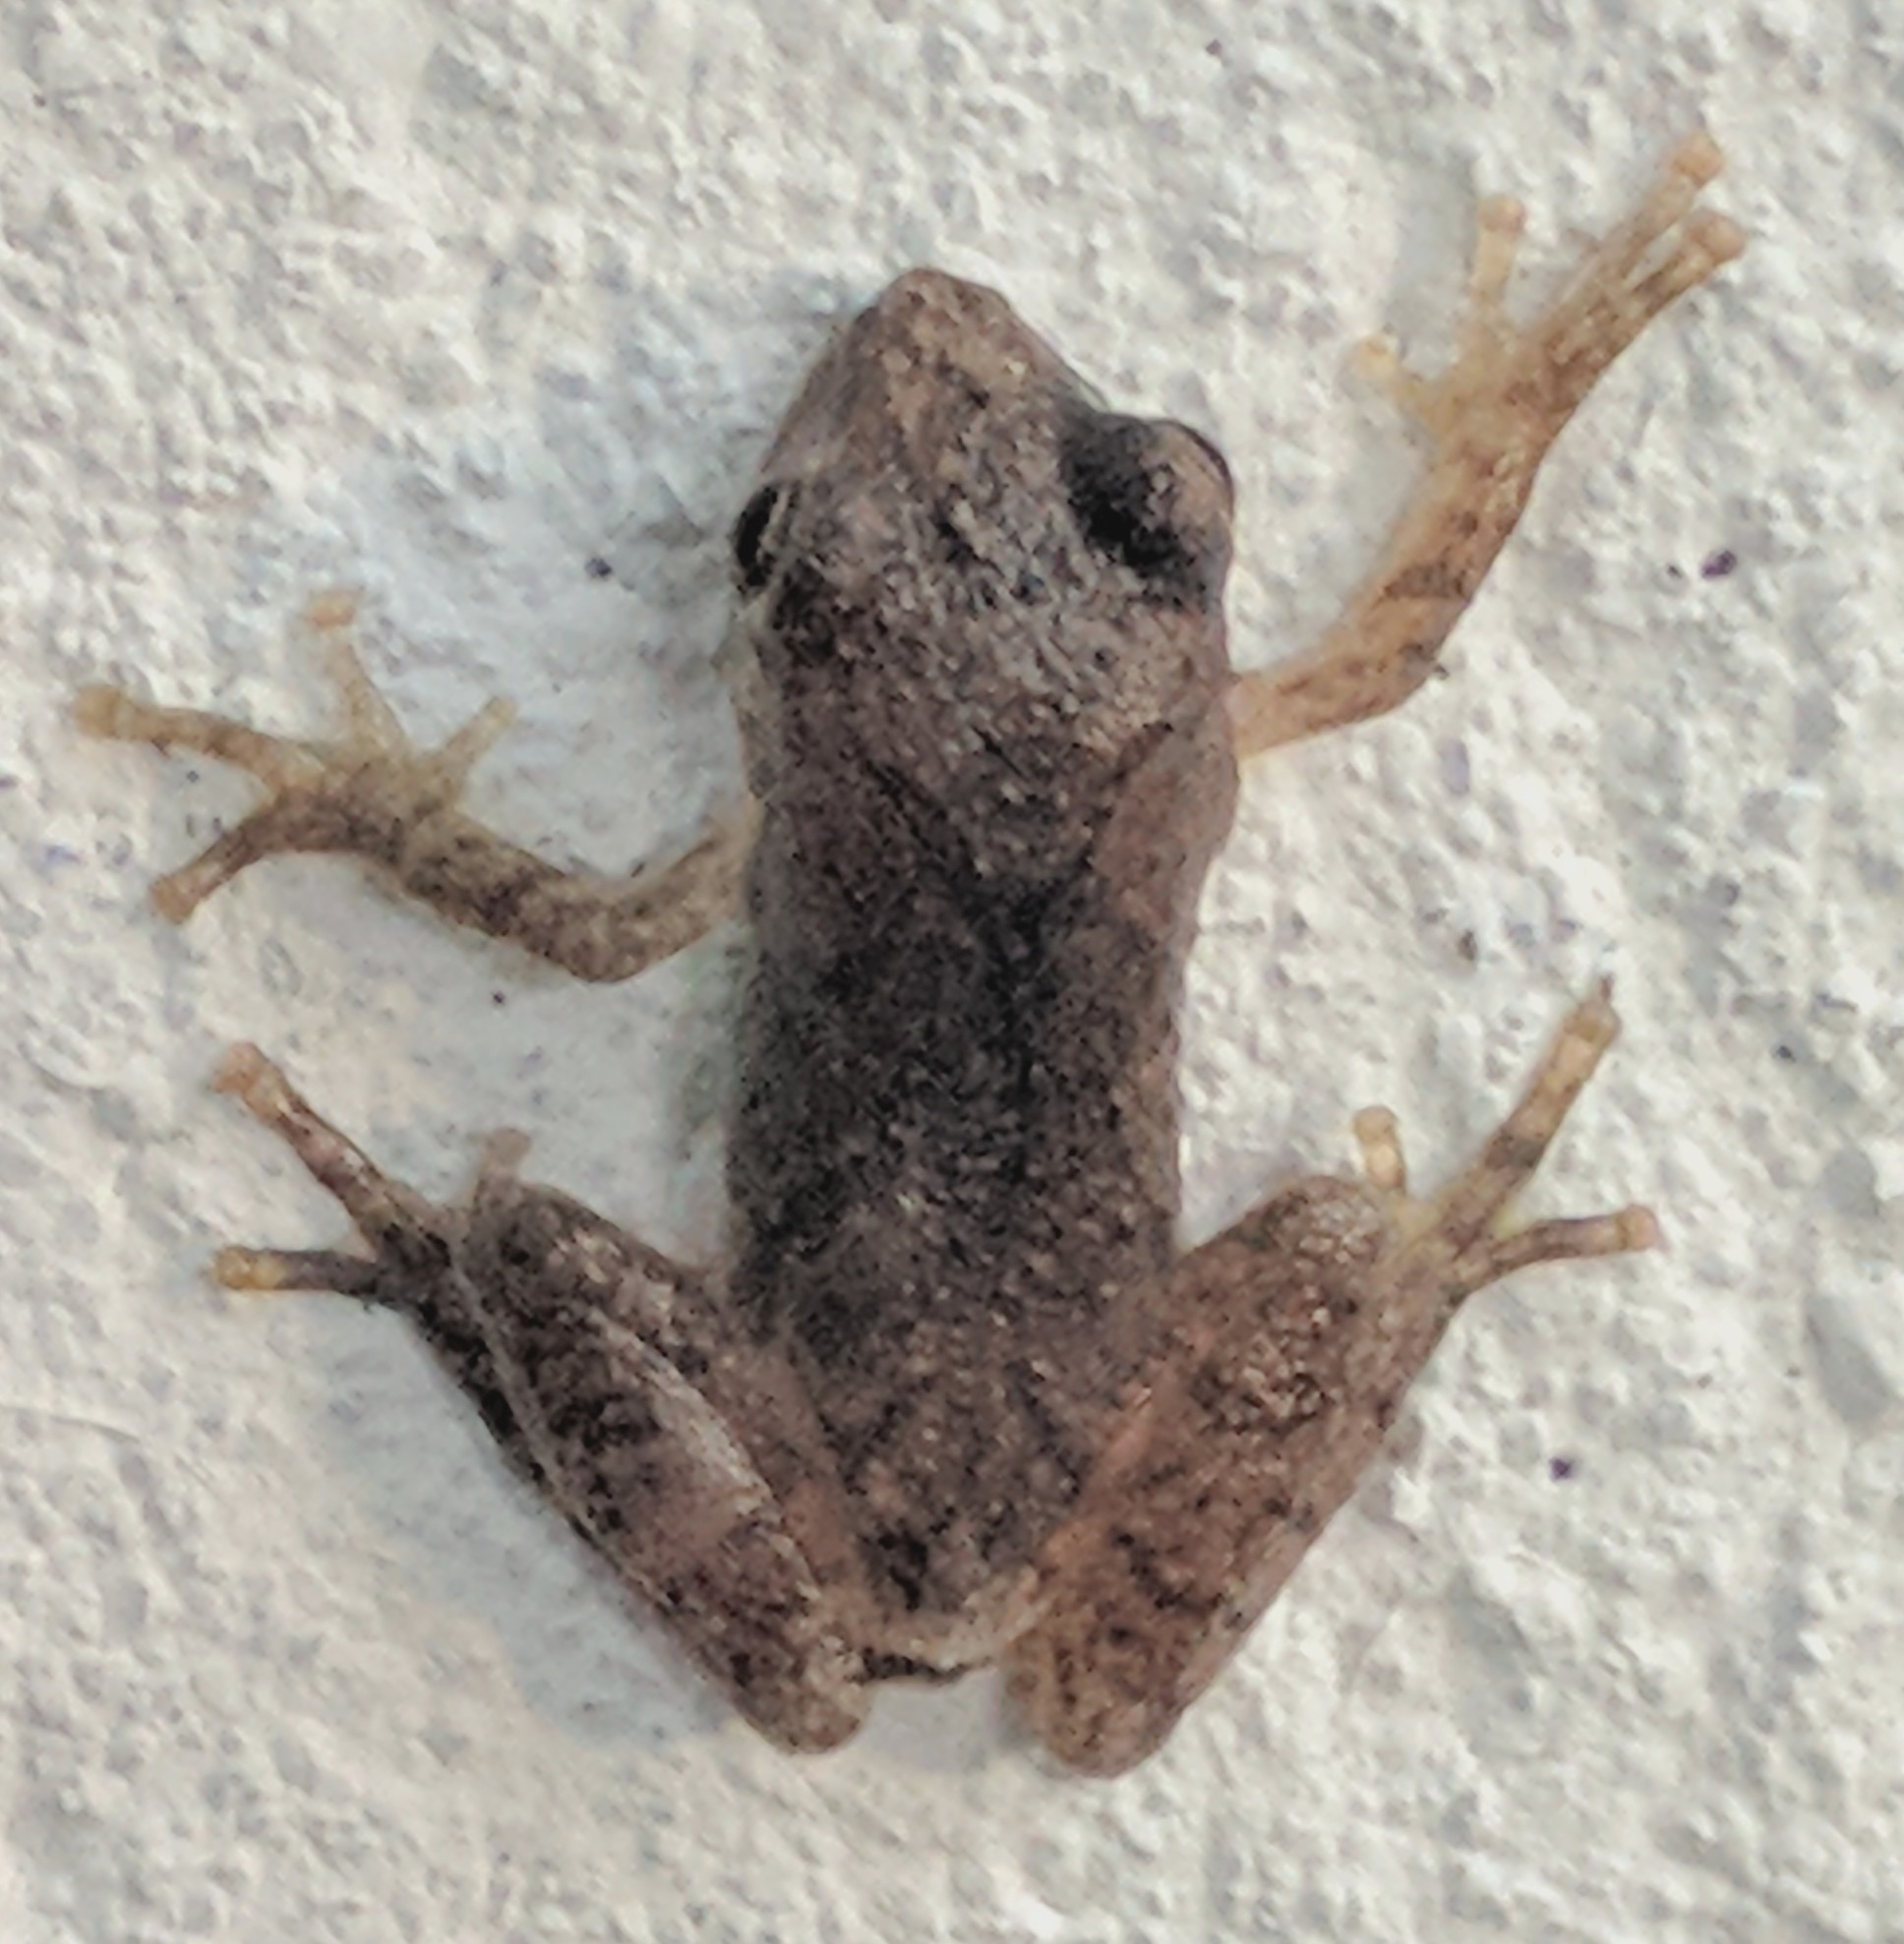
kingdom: Animalia
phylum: Chordata
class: Amphibia
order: Anura
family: Hylidae
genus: Pseudacris
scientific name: Pseudacris crucifer
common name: Spring peeper
